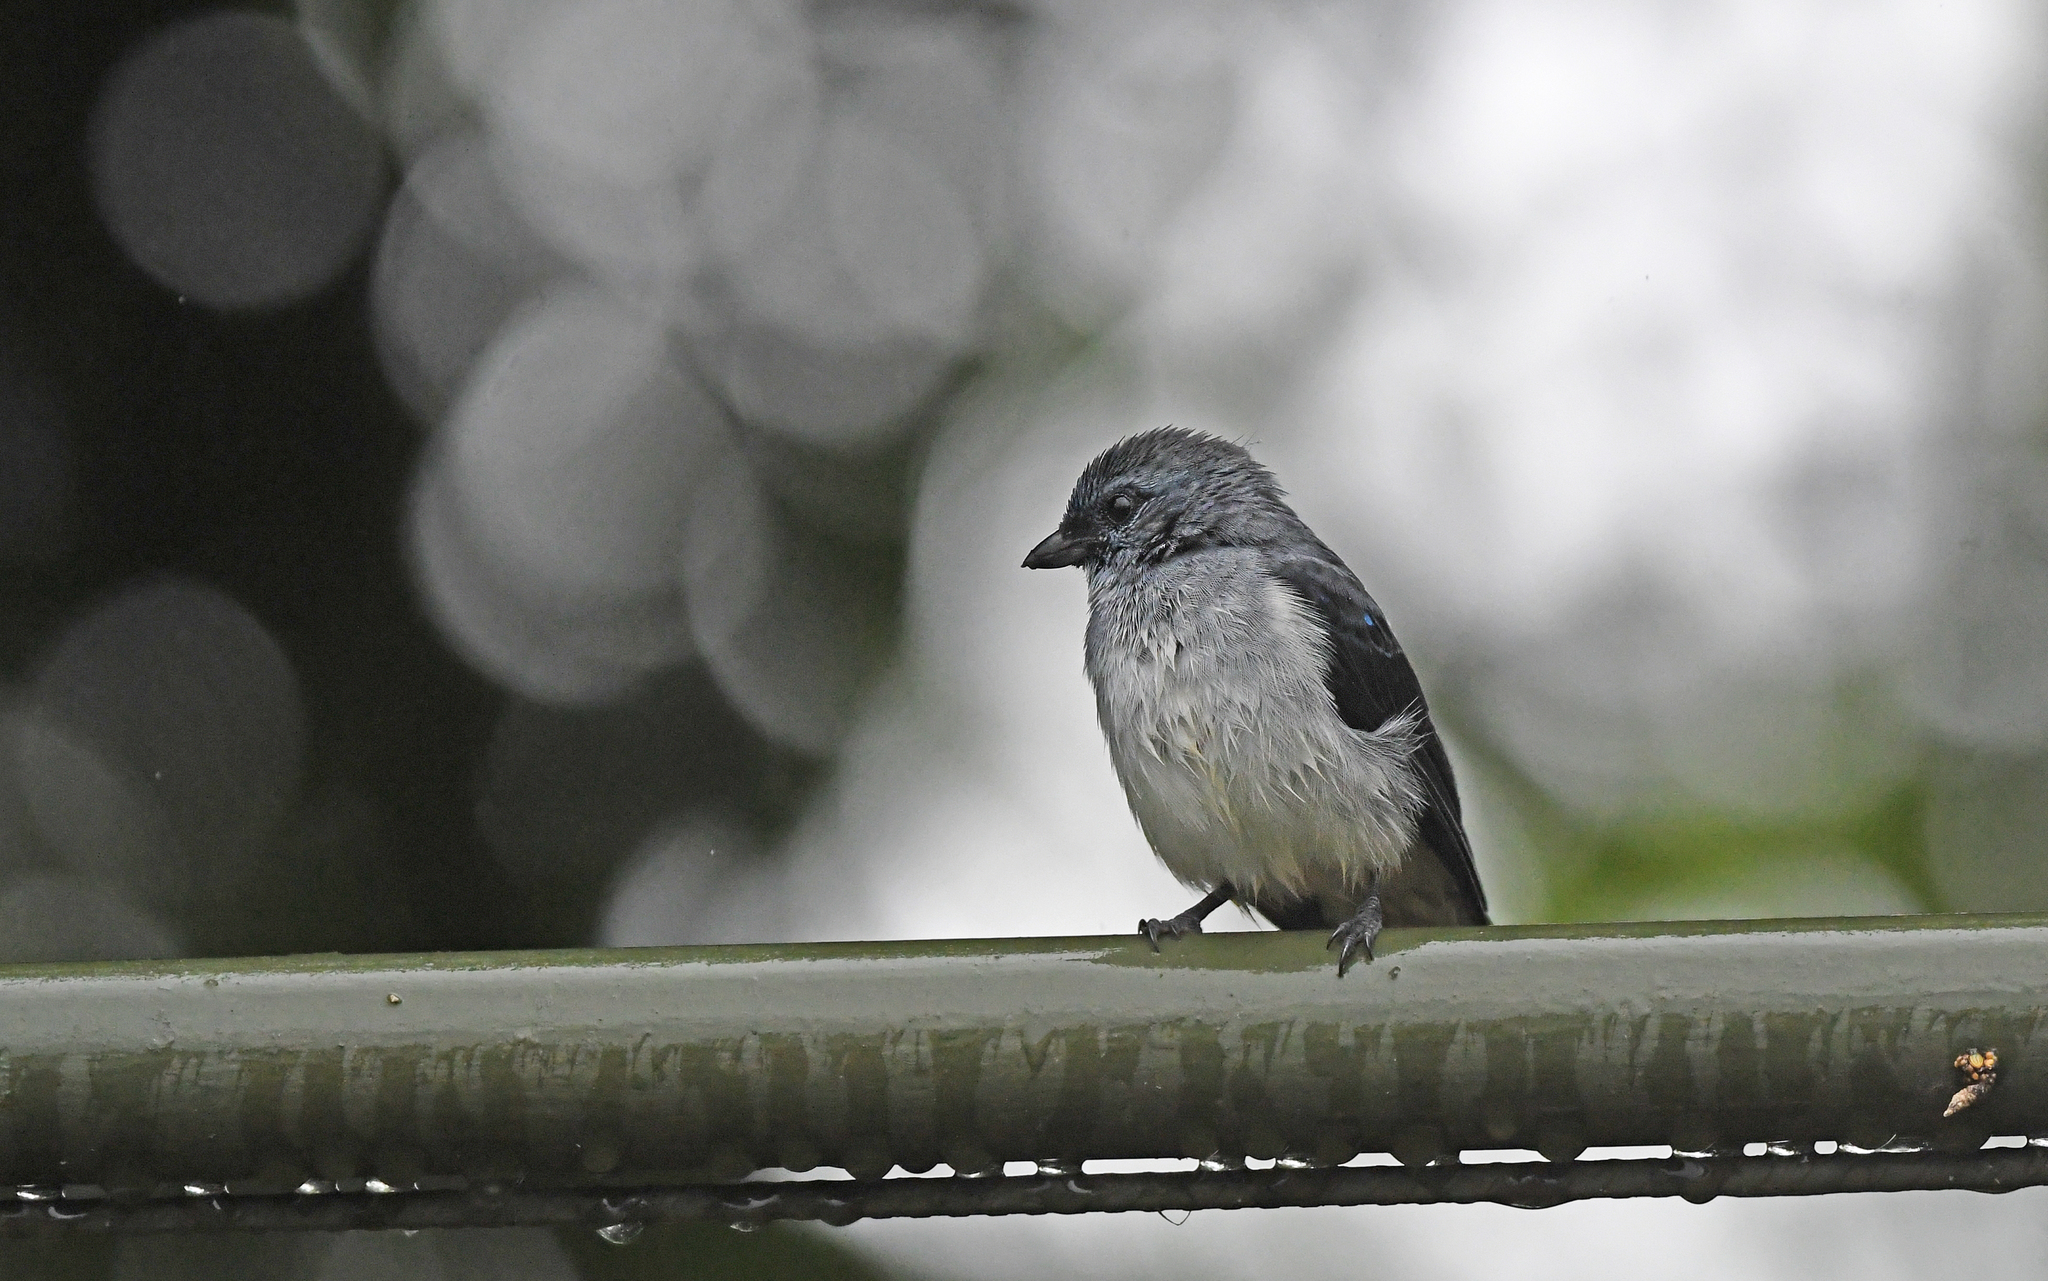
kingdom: Animalia
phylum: Chordata
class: Aves
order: Passeriformes
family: Thraupidae
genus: Tangara
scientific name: Tangara inornata
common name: Plain-colored tanager
